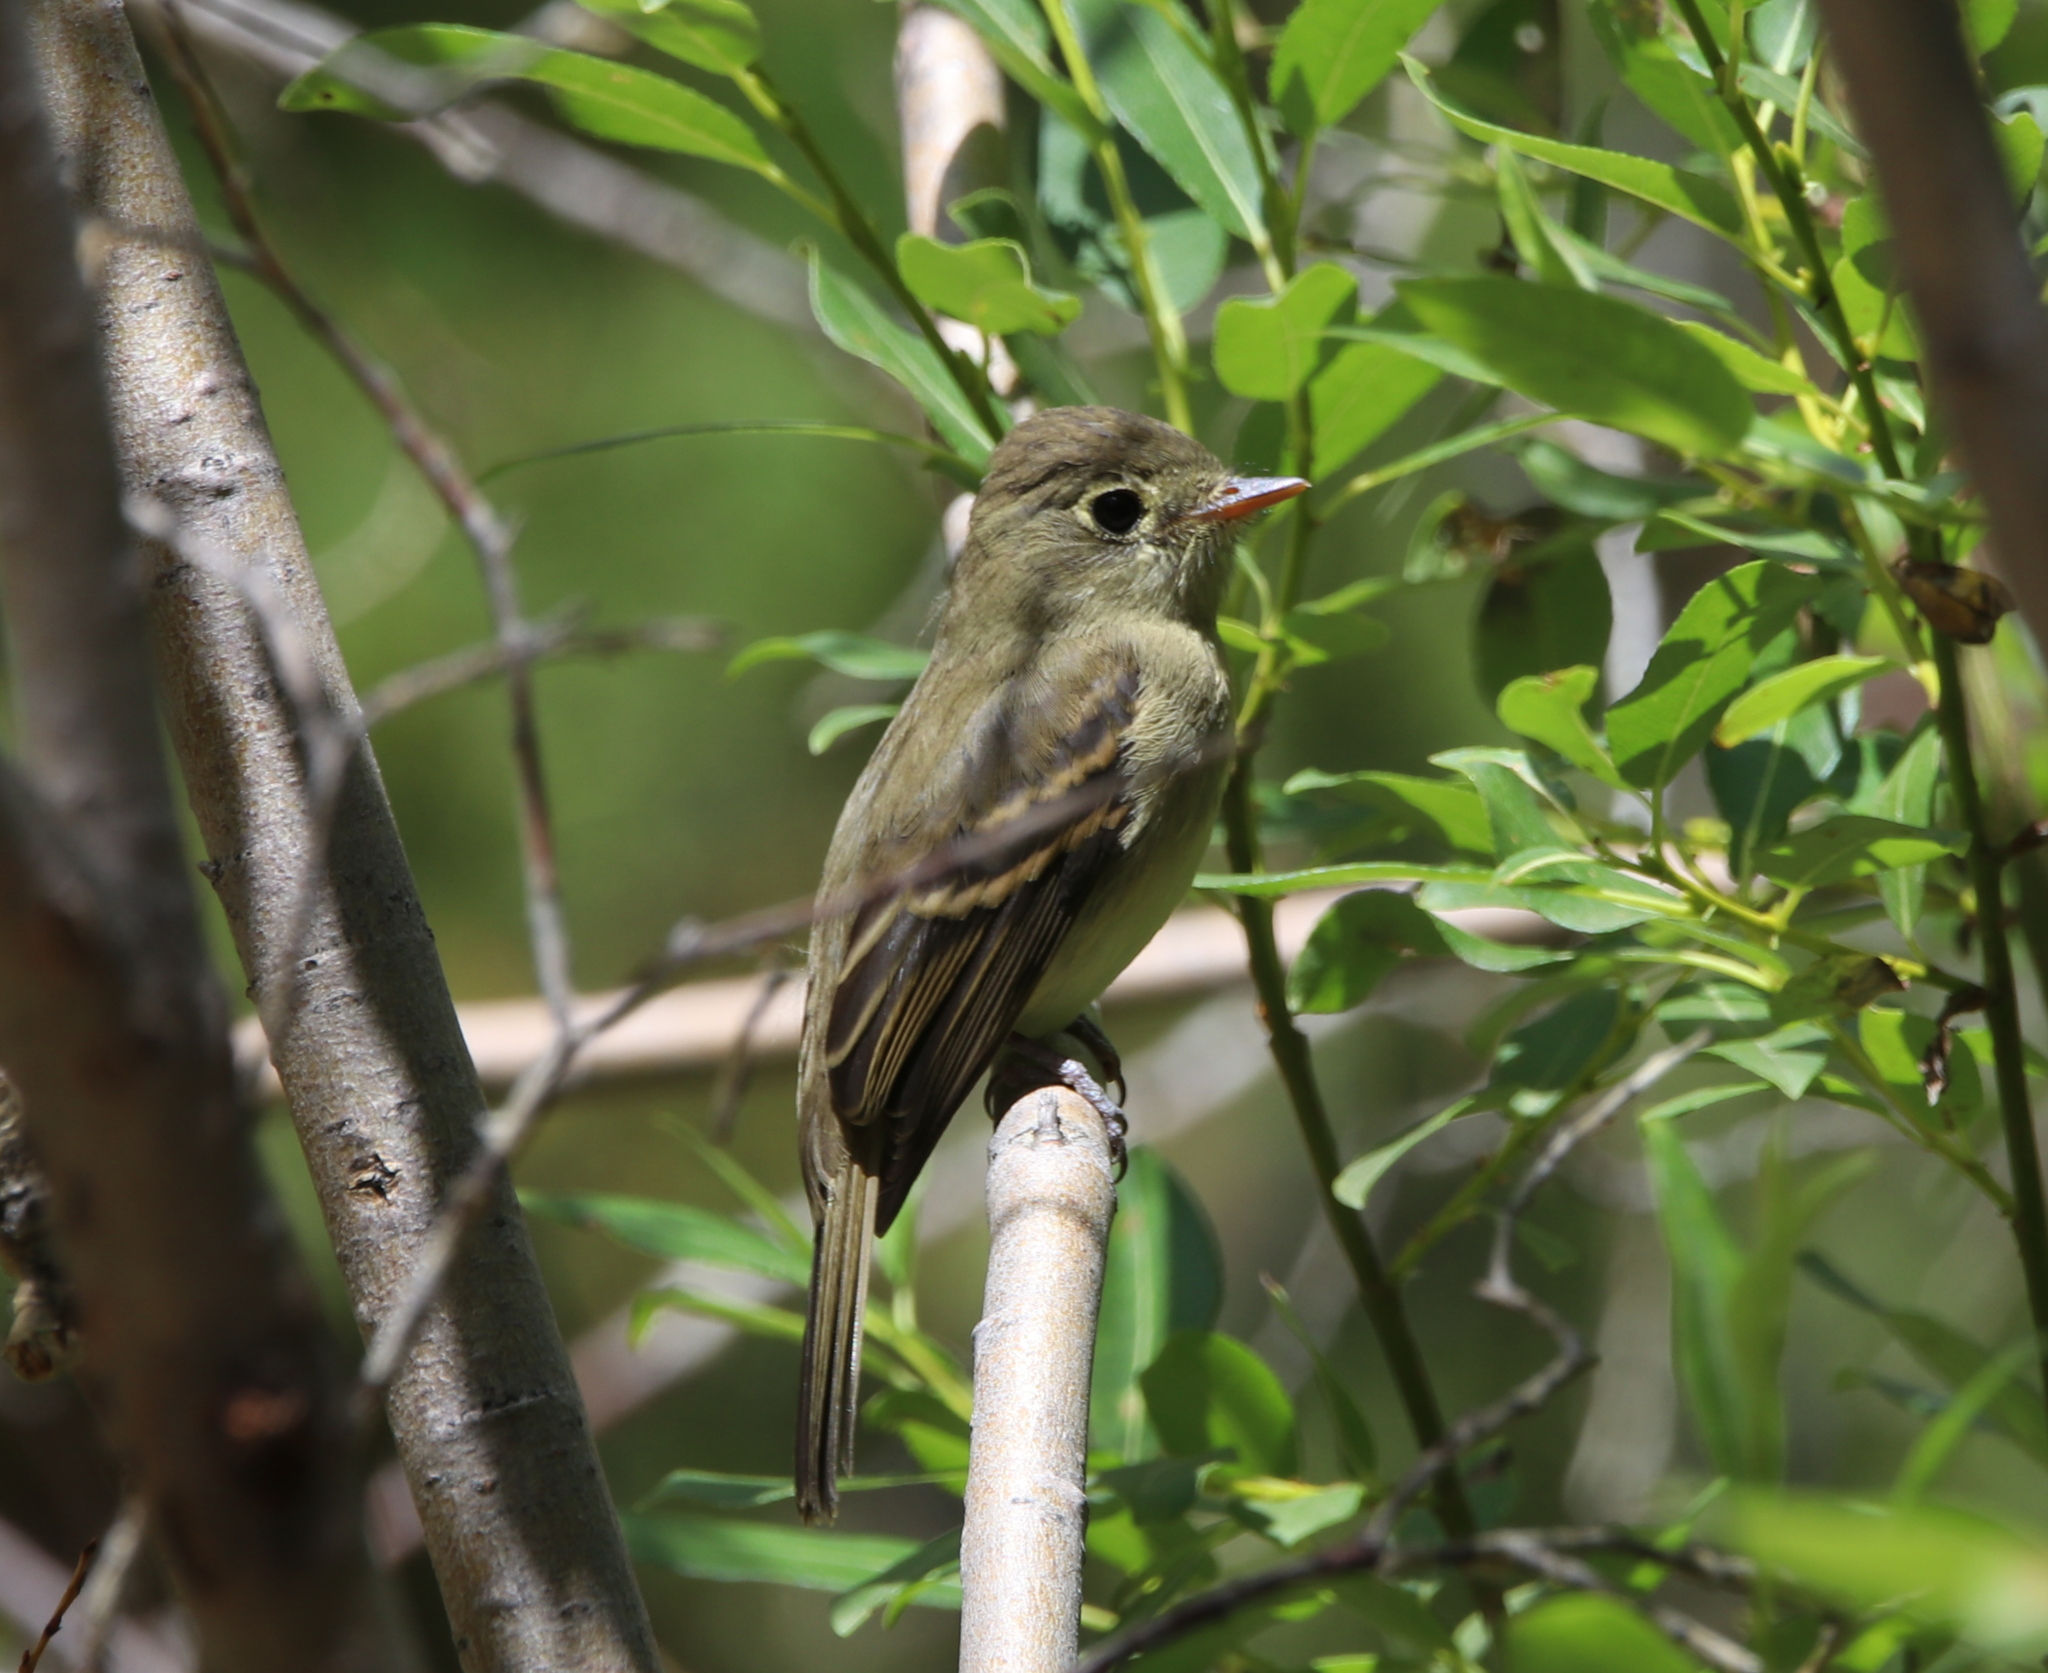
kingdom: Animalia
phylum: Chordata
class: Aves
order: Passeriformes
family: Tyrannidae
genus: Empidonax
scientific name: Empidonax difficilis
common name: Pacific-slope flycatcher
